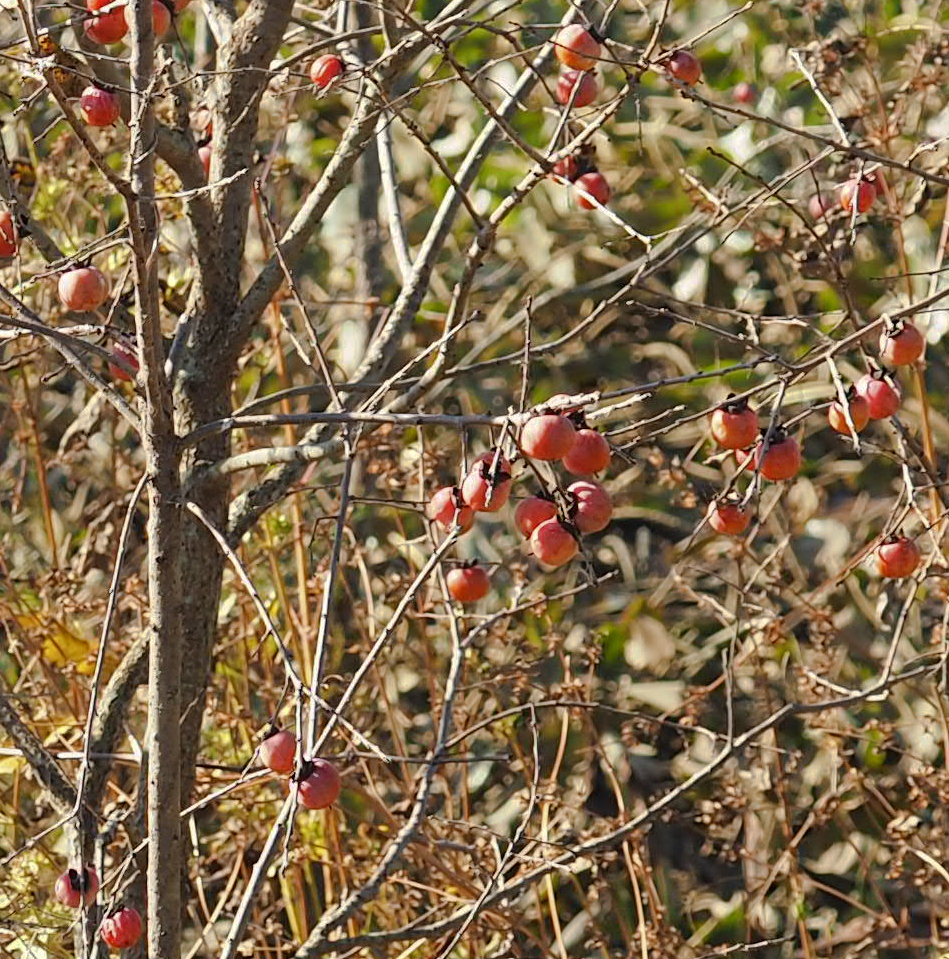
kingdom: Plantae
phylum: Tracheophyta
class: Magnoliopsida
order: Ericales
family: Ebenaceae
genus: Diospyros
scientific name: Diospyros virginiana
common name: Persimmon
